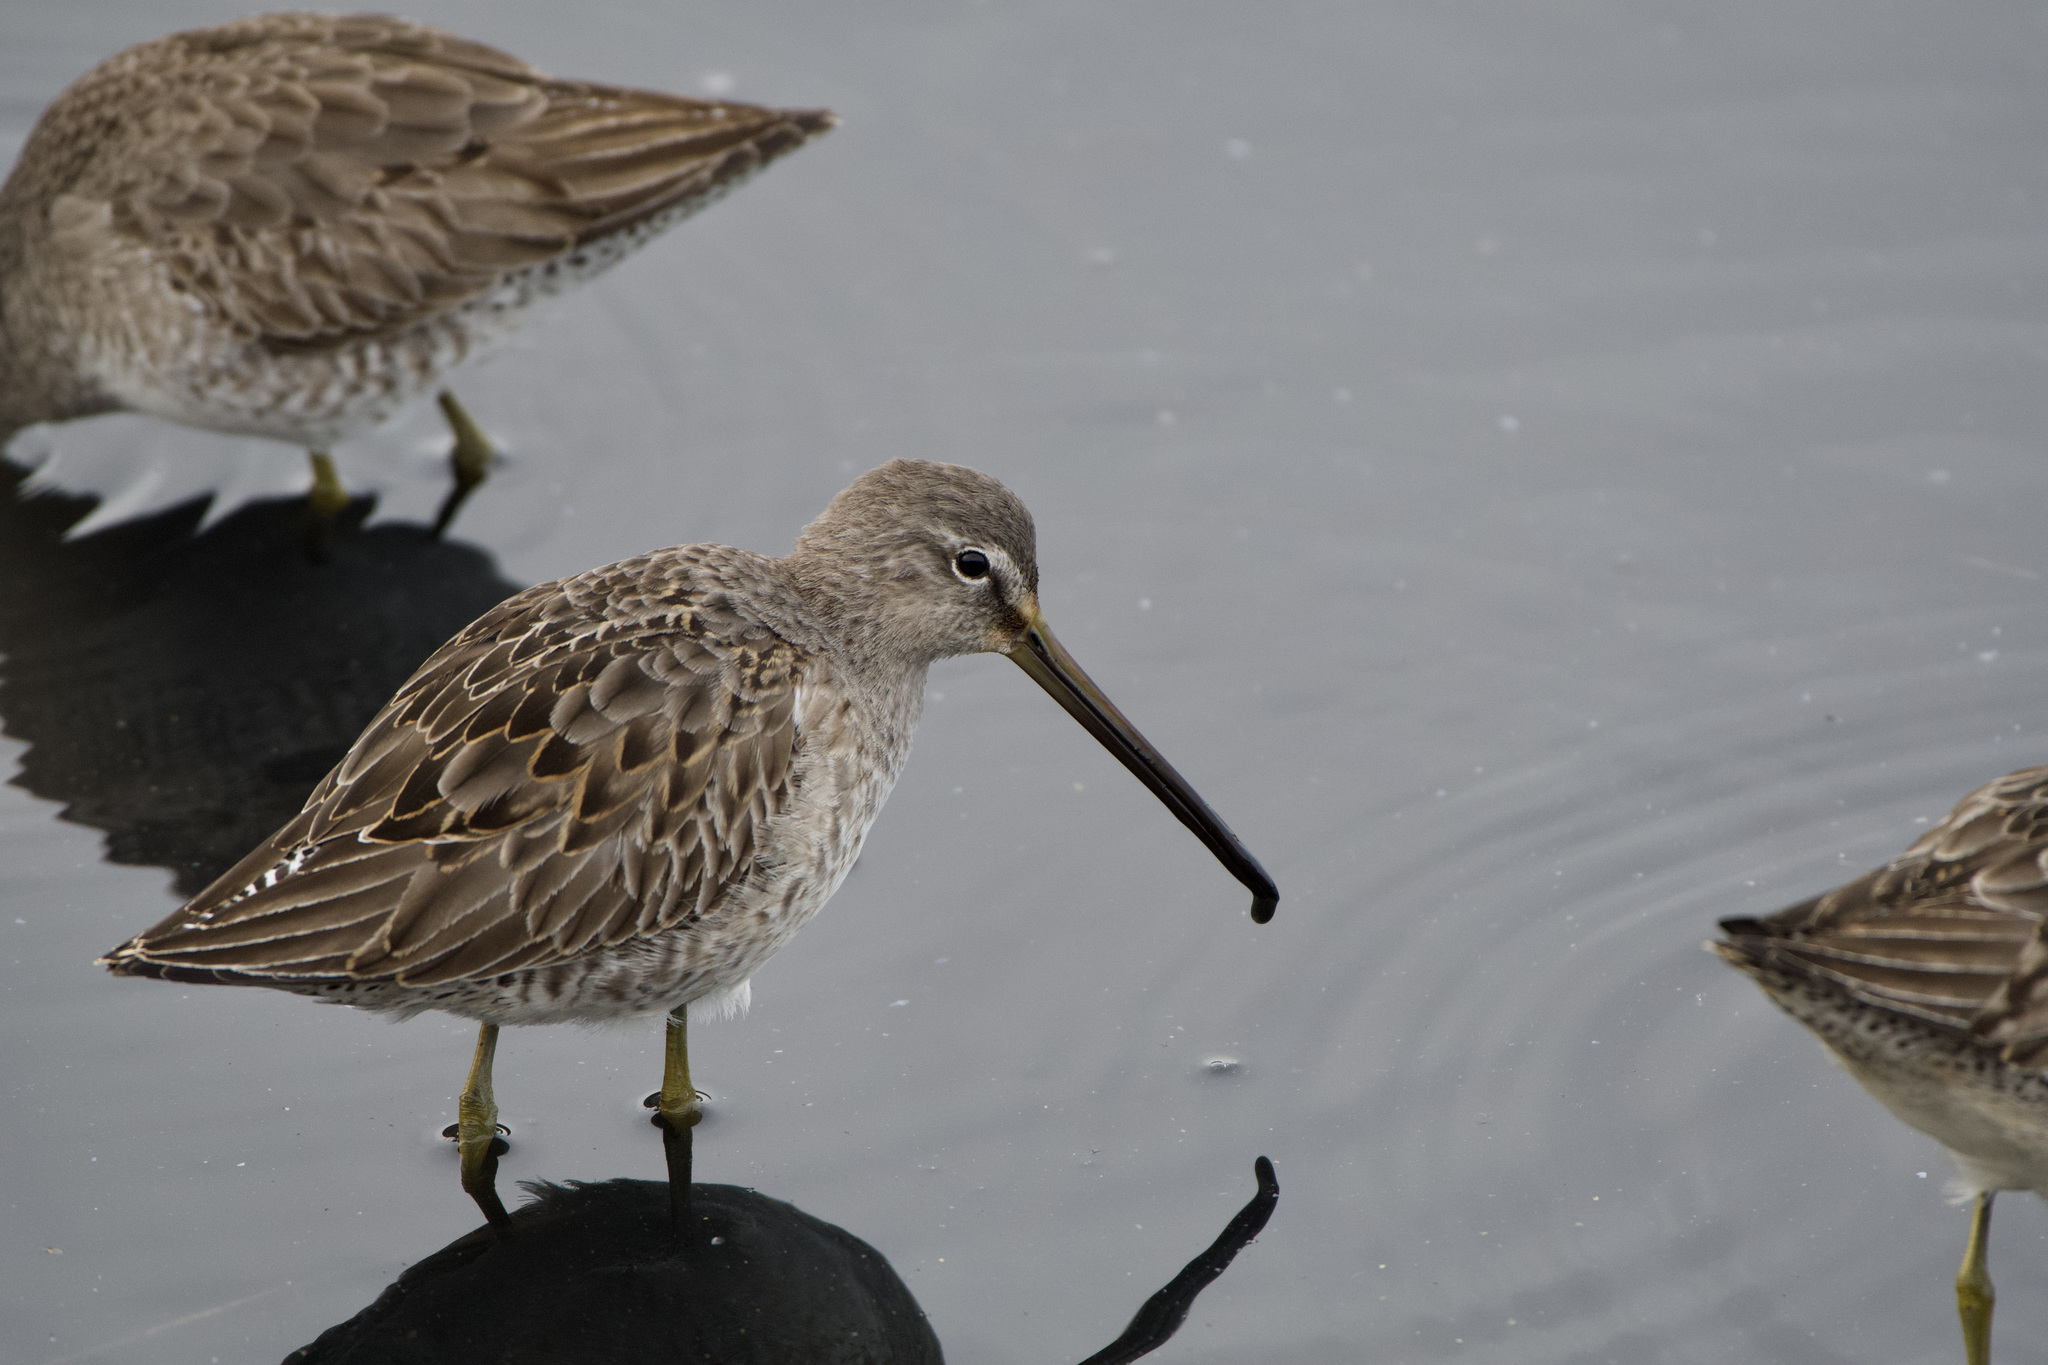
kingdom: Animalia
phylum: Chordata
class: Aves
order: Charadriiformes
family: Scolopacidae
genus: Limnodromus
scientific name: Limnodromus scolopaceus
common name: Long-billed dowitcher
